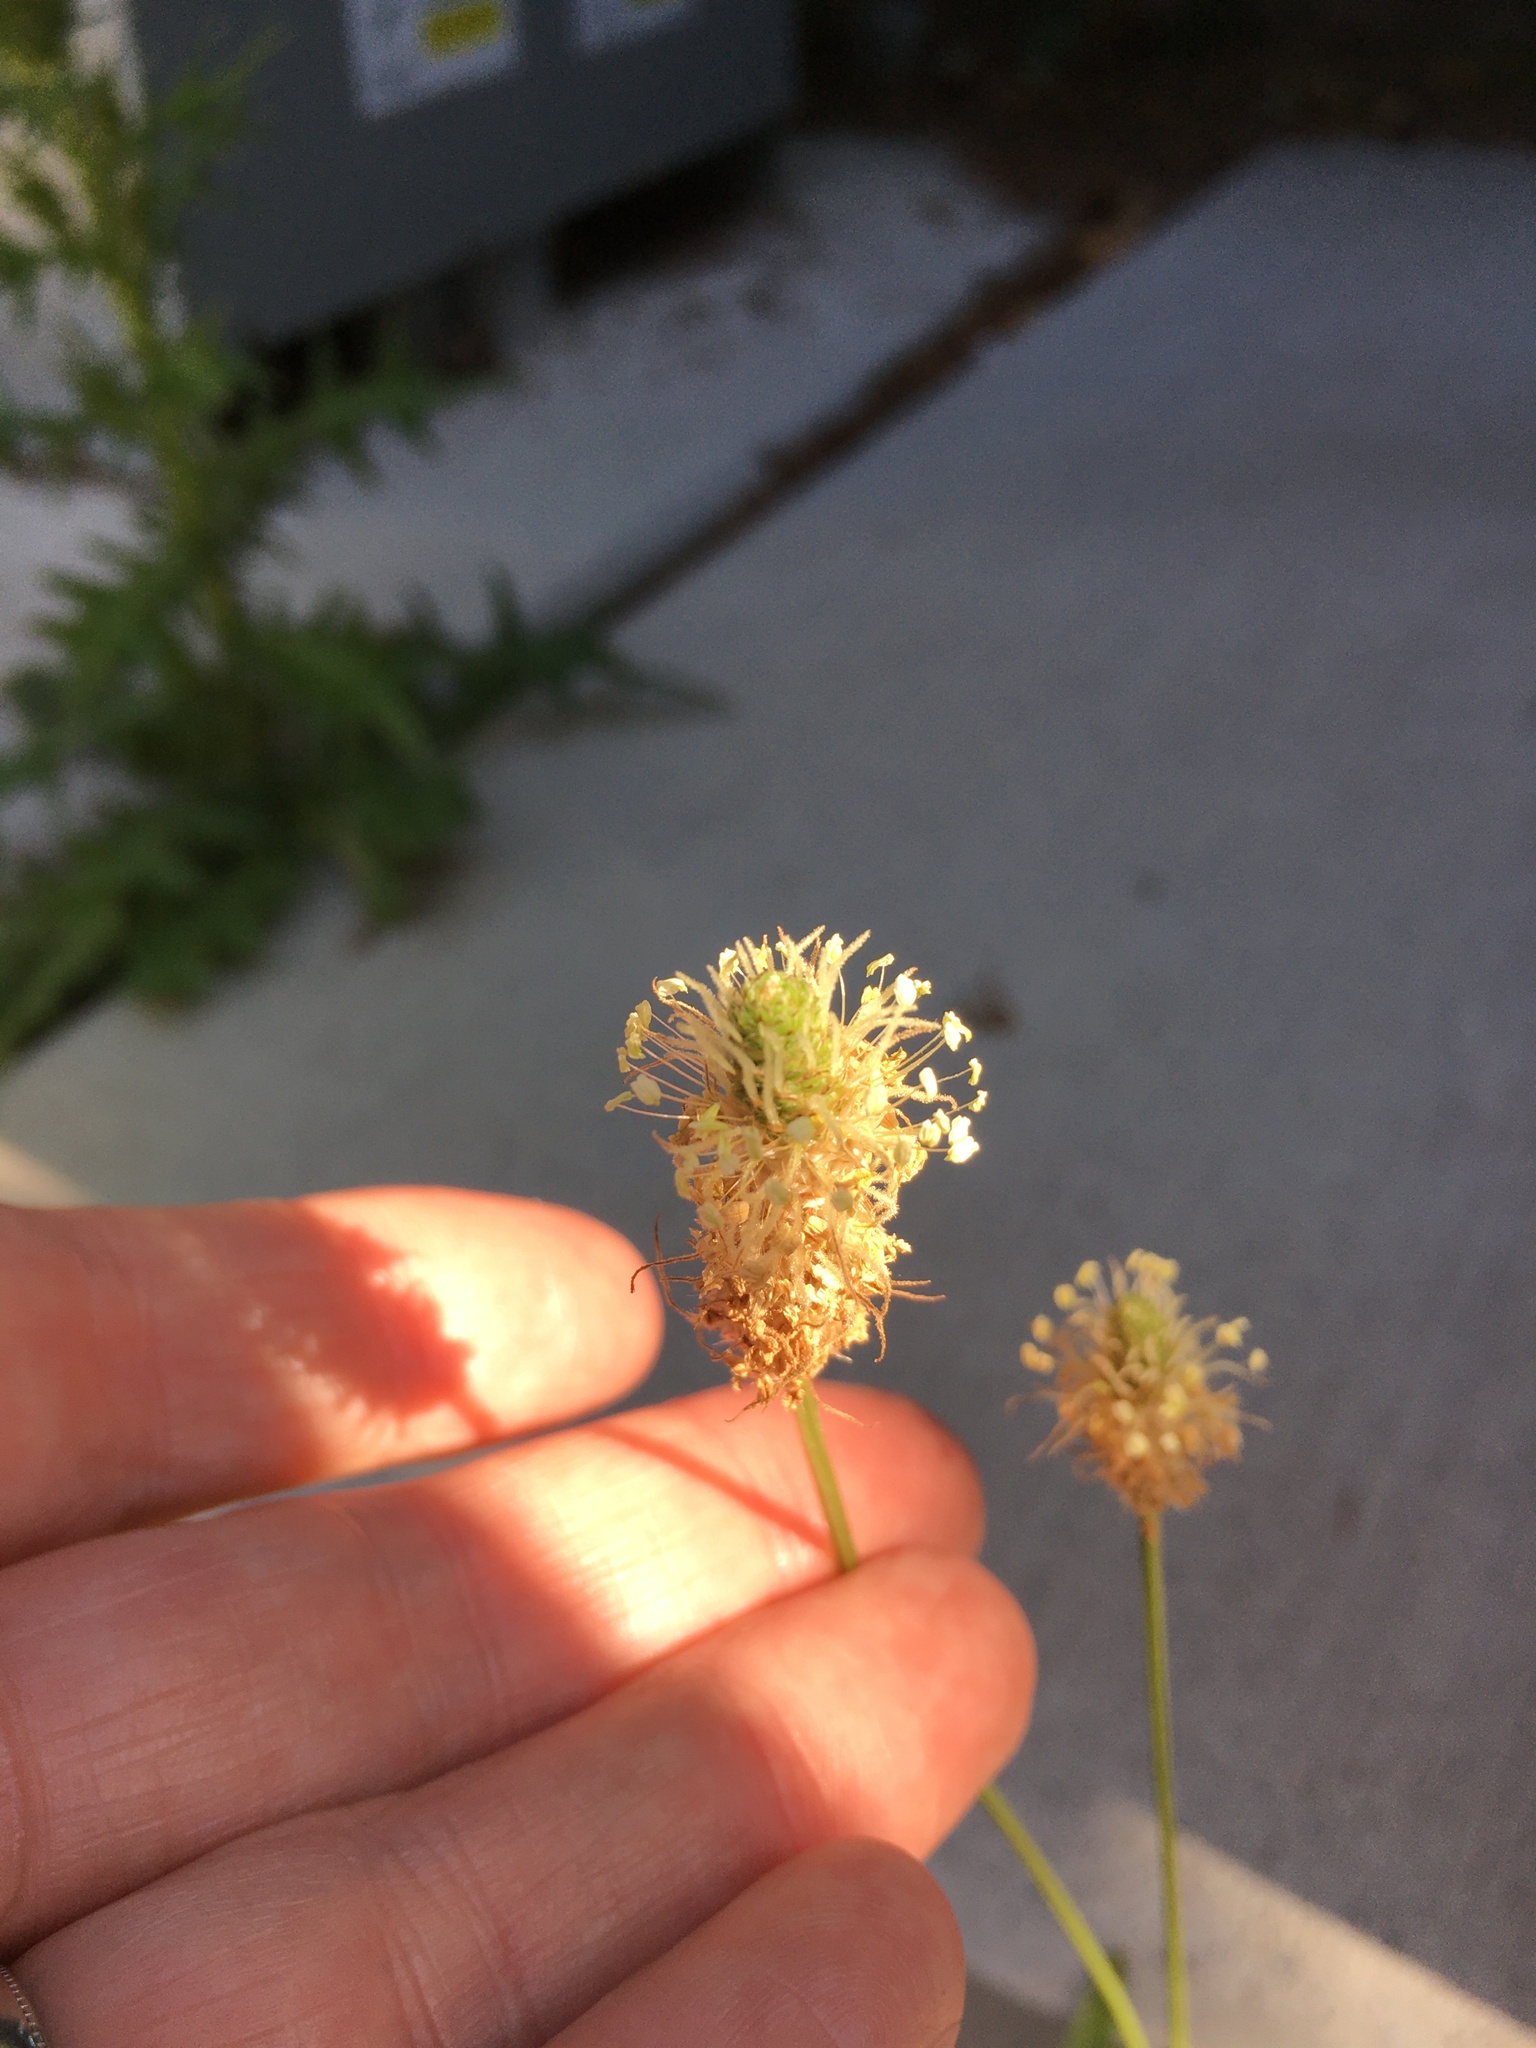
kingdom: Plantae
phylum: Tracheophyta
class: Magnoliopsida
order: Lamiales
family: Plantaginaceae
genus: Plantago
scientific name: Plantago lanceolata
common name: Ribwort plantain
